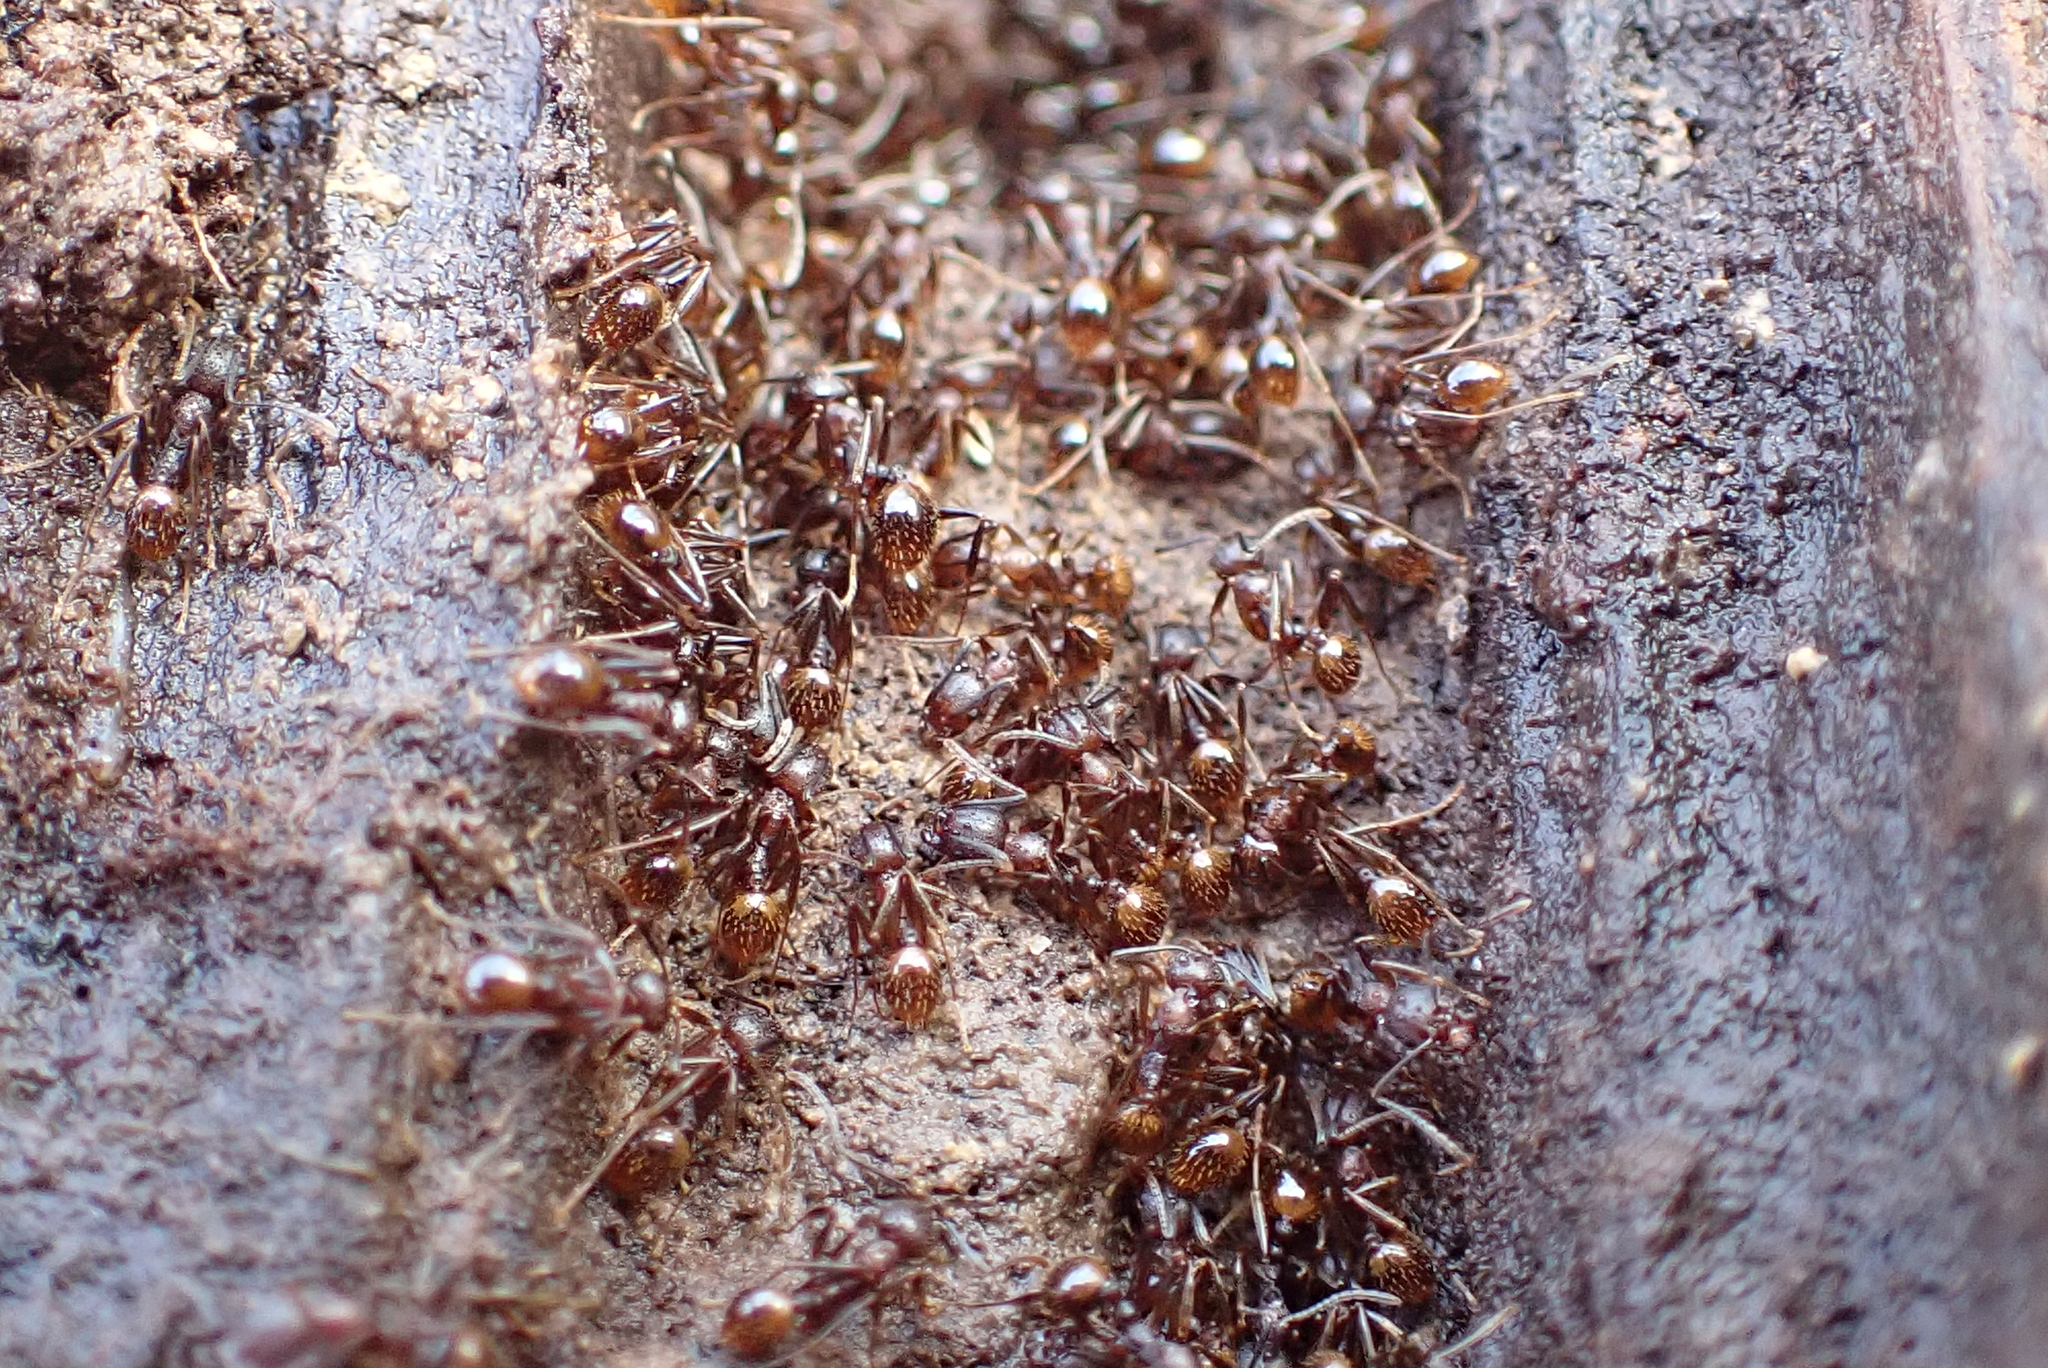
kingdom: Animalia
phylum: Arthropoda
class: Insecta
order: Hymenoptera
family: Formicidae
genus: Aphaenogaster
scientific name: Aphaenogaster fulva
